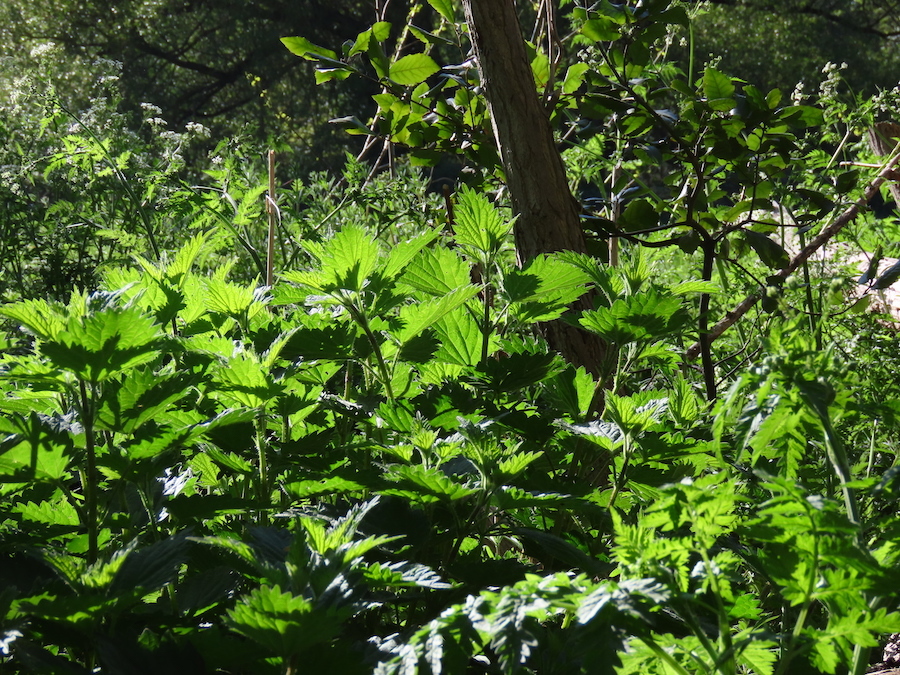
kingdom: Plantae
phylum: Tracheophyta
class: Magnoliopsida
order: Rosales
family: Urticaceae
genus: Urtica
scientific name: Urtica dioica
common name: Common nettle
